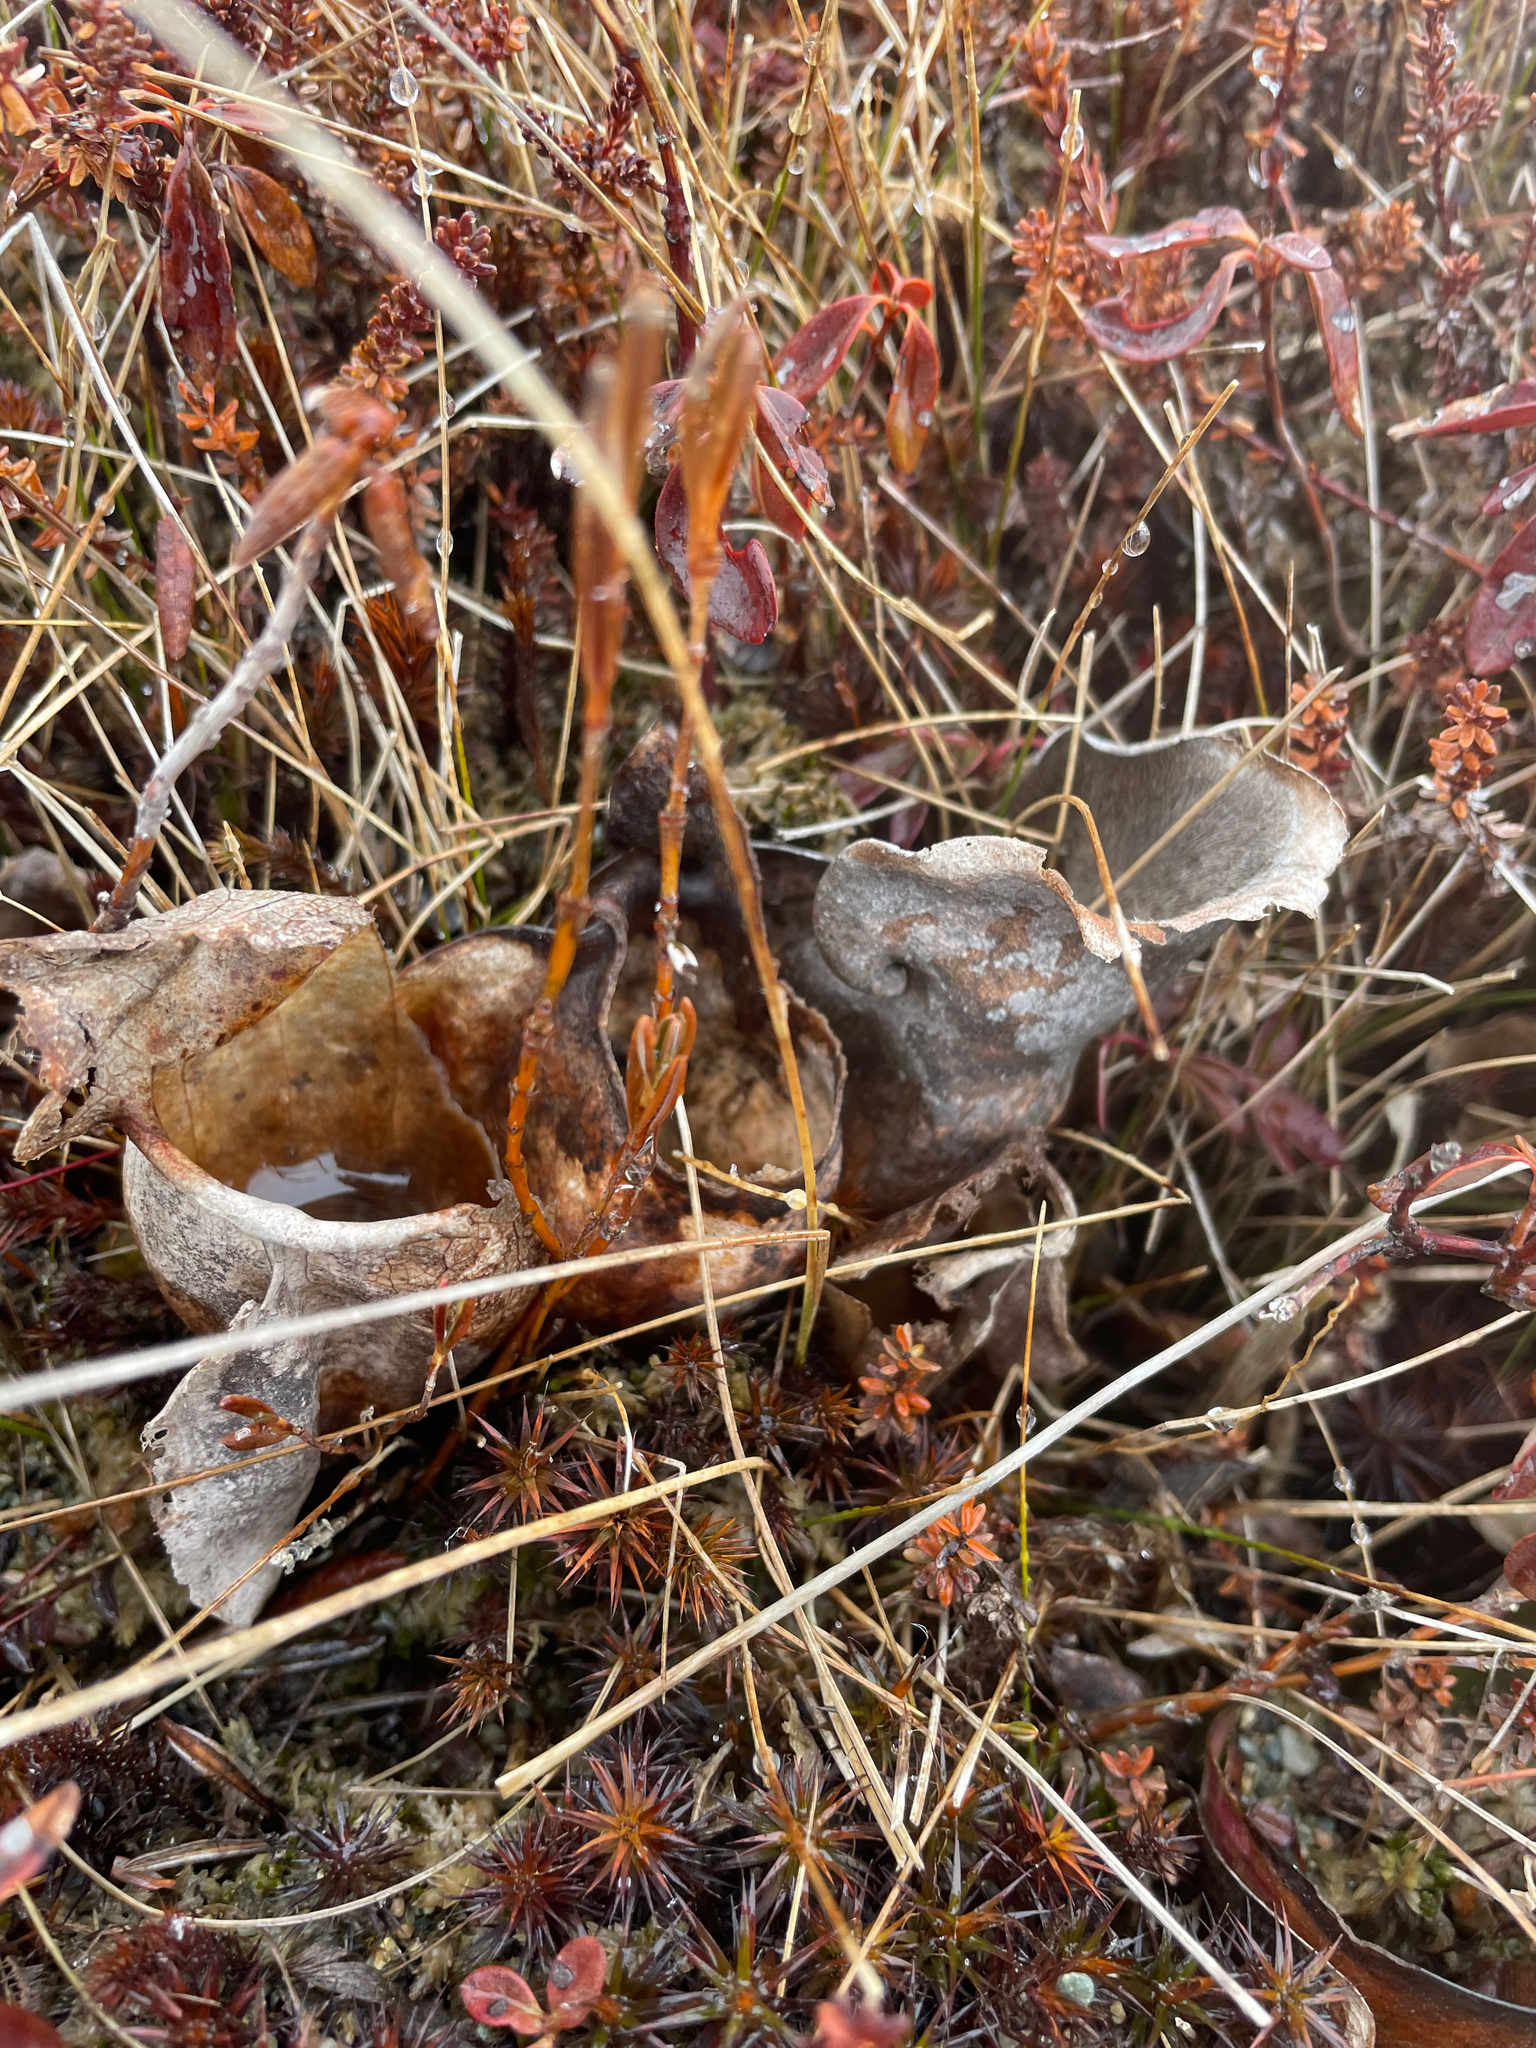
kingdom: Plantae
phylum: Tracheophyta
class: Magnoliopsida
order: Ericales
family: Sarraceniaceae
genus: Sarracenia
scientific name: Sarracenia purpurea
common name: Pitcherplant
